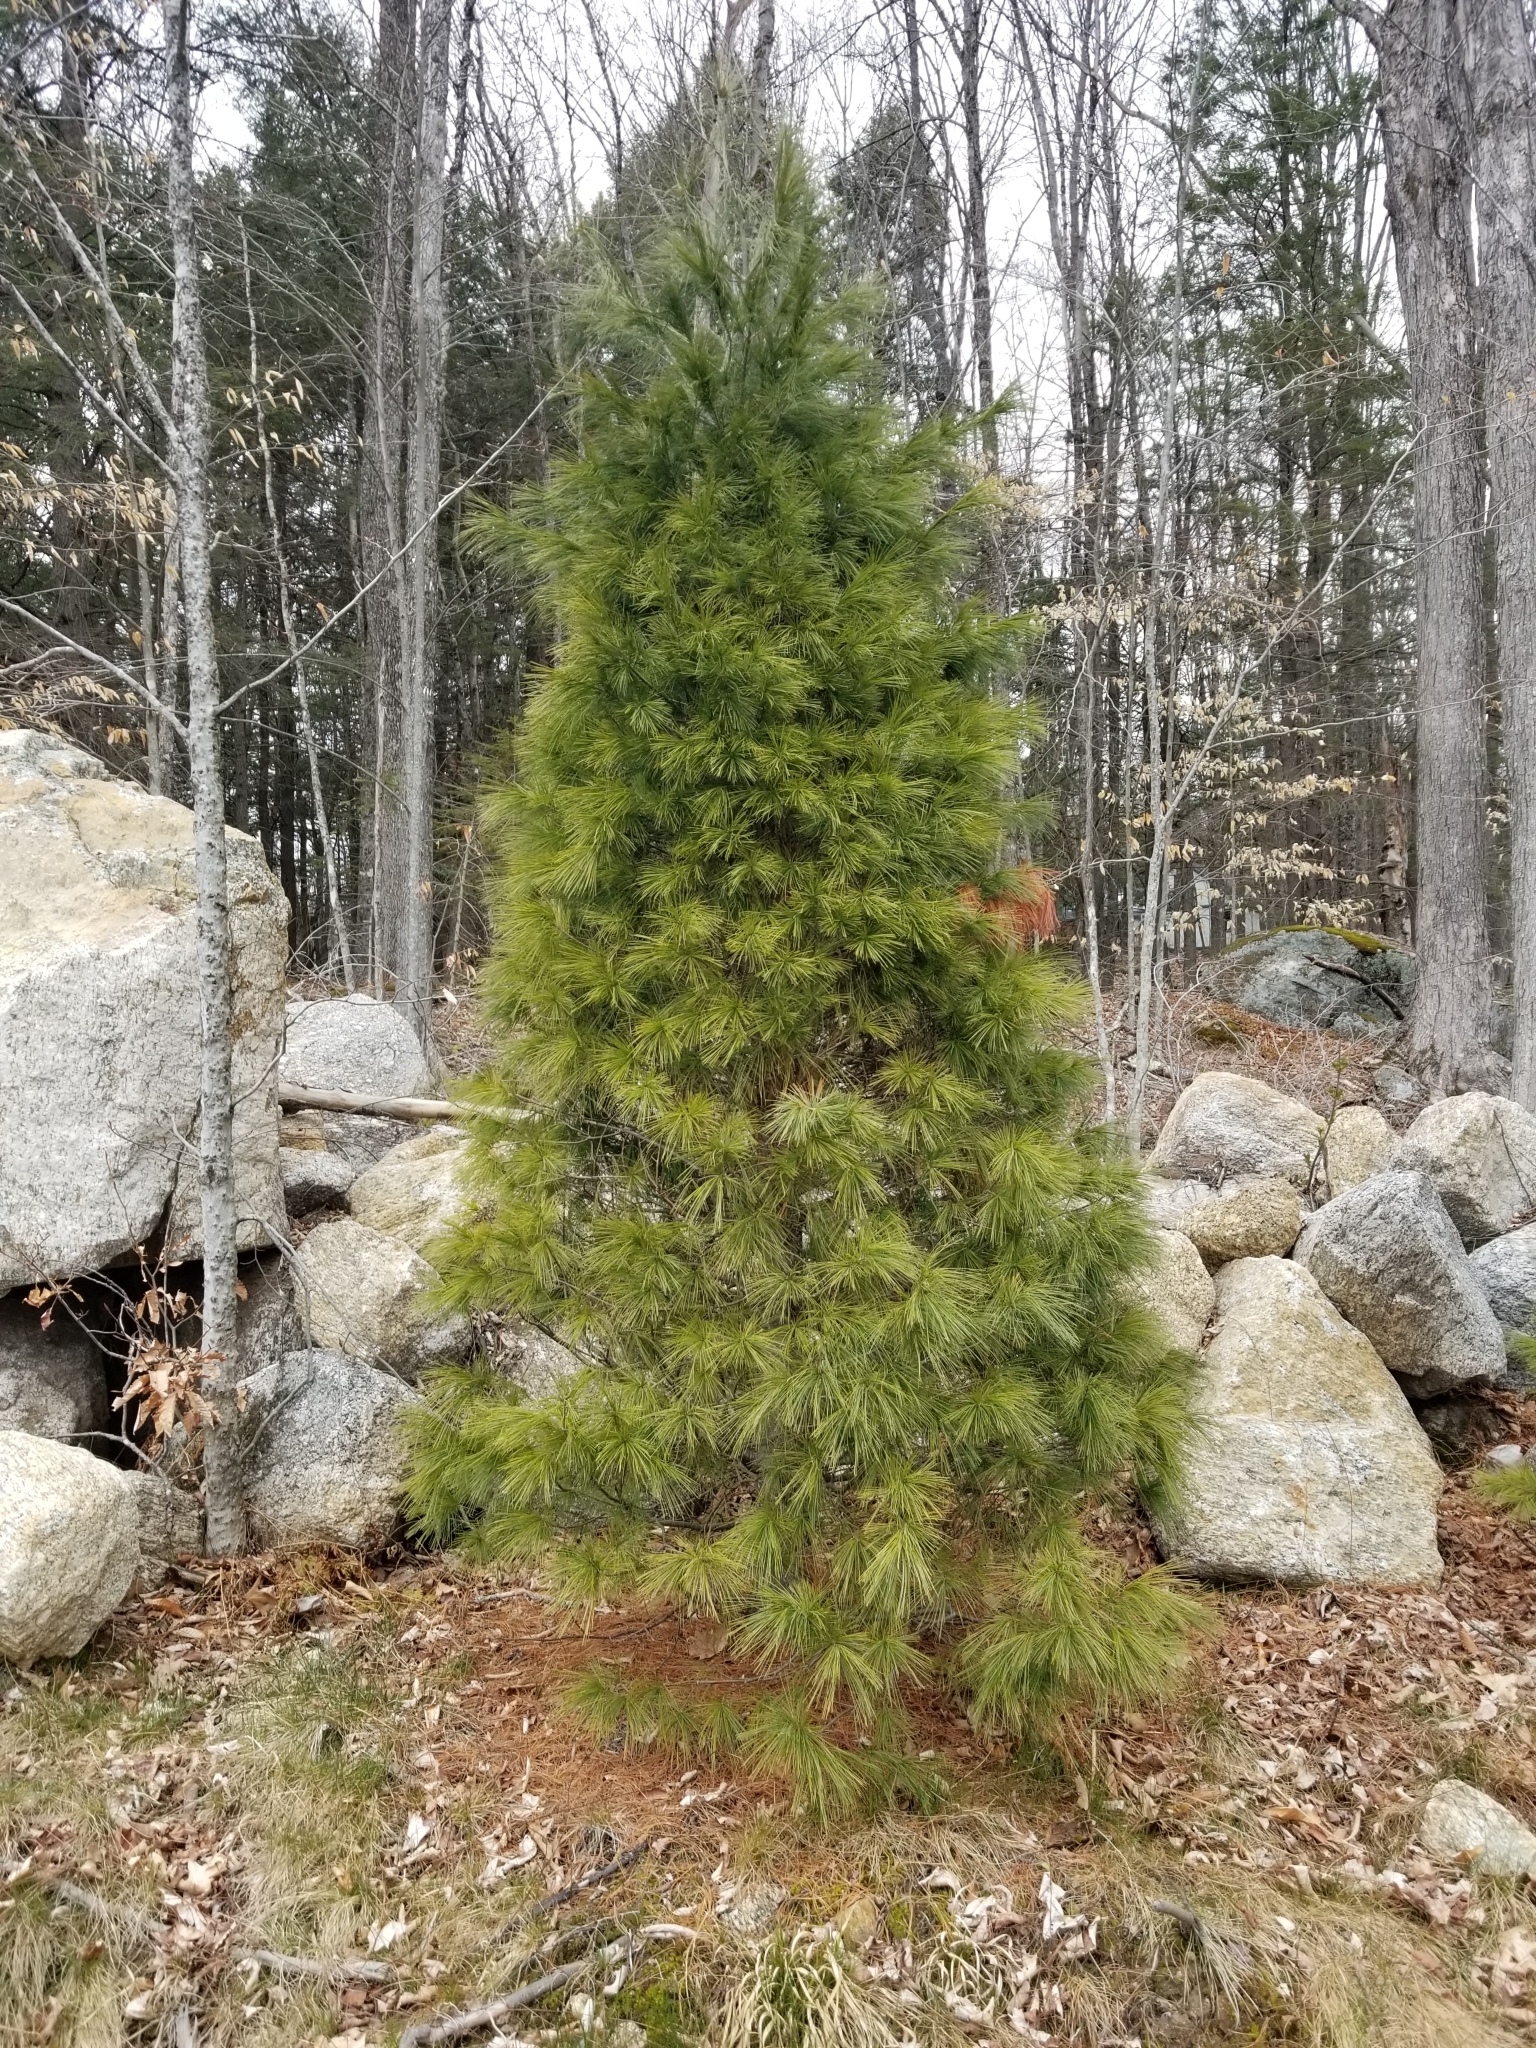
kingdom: Plantae
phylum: Tracheophyta
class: Pinopsida
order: Pinales
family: Pinaceae
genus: Pinus
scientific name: Pinus strobus
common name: Weymouth pine
